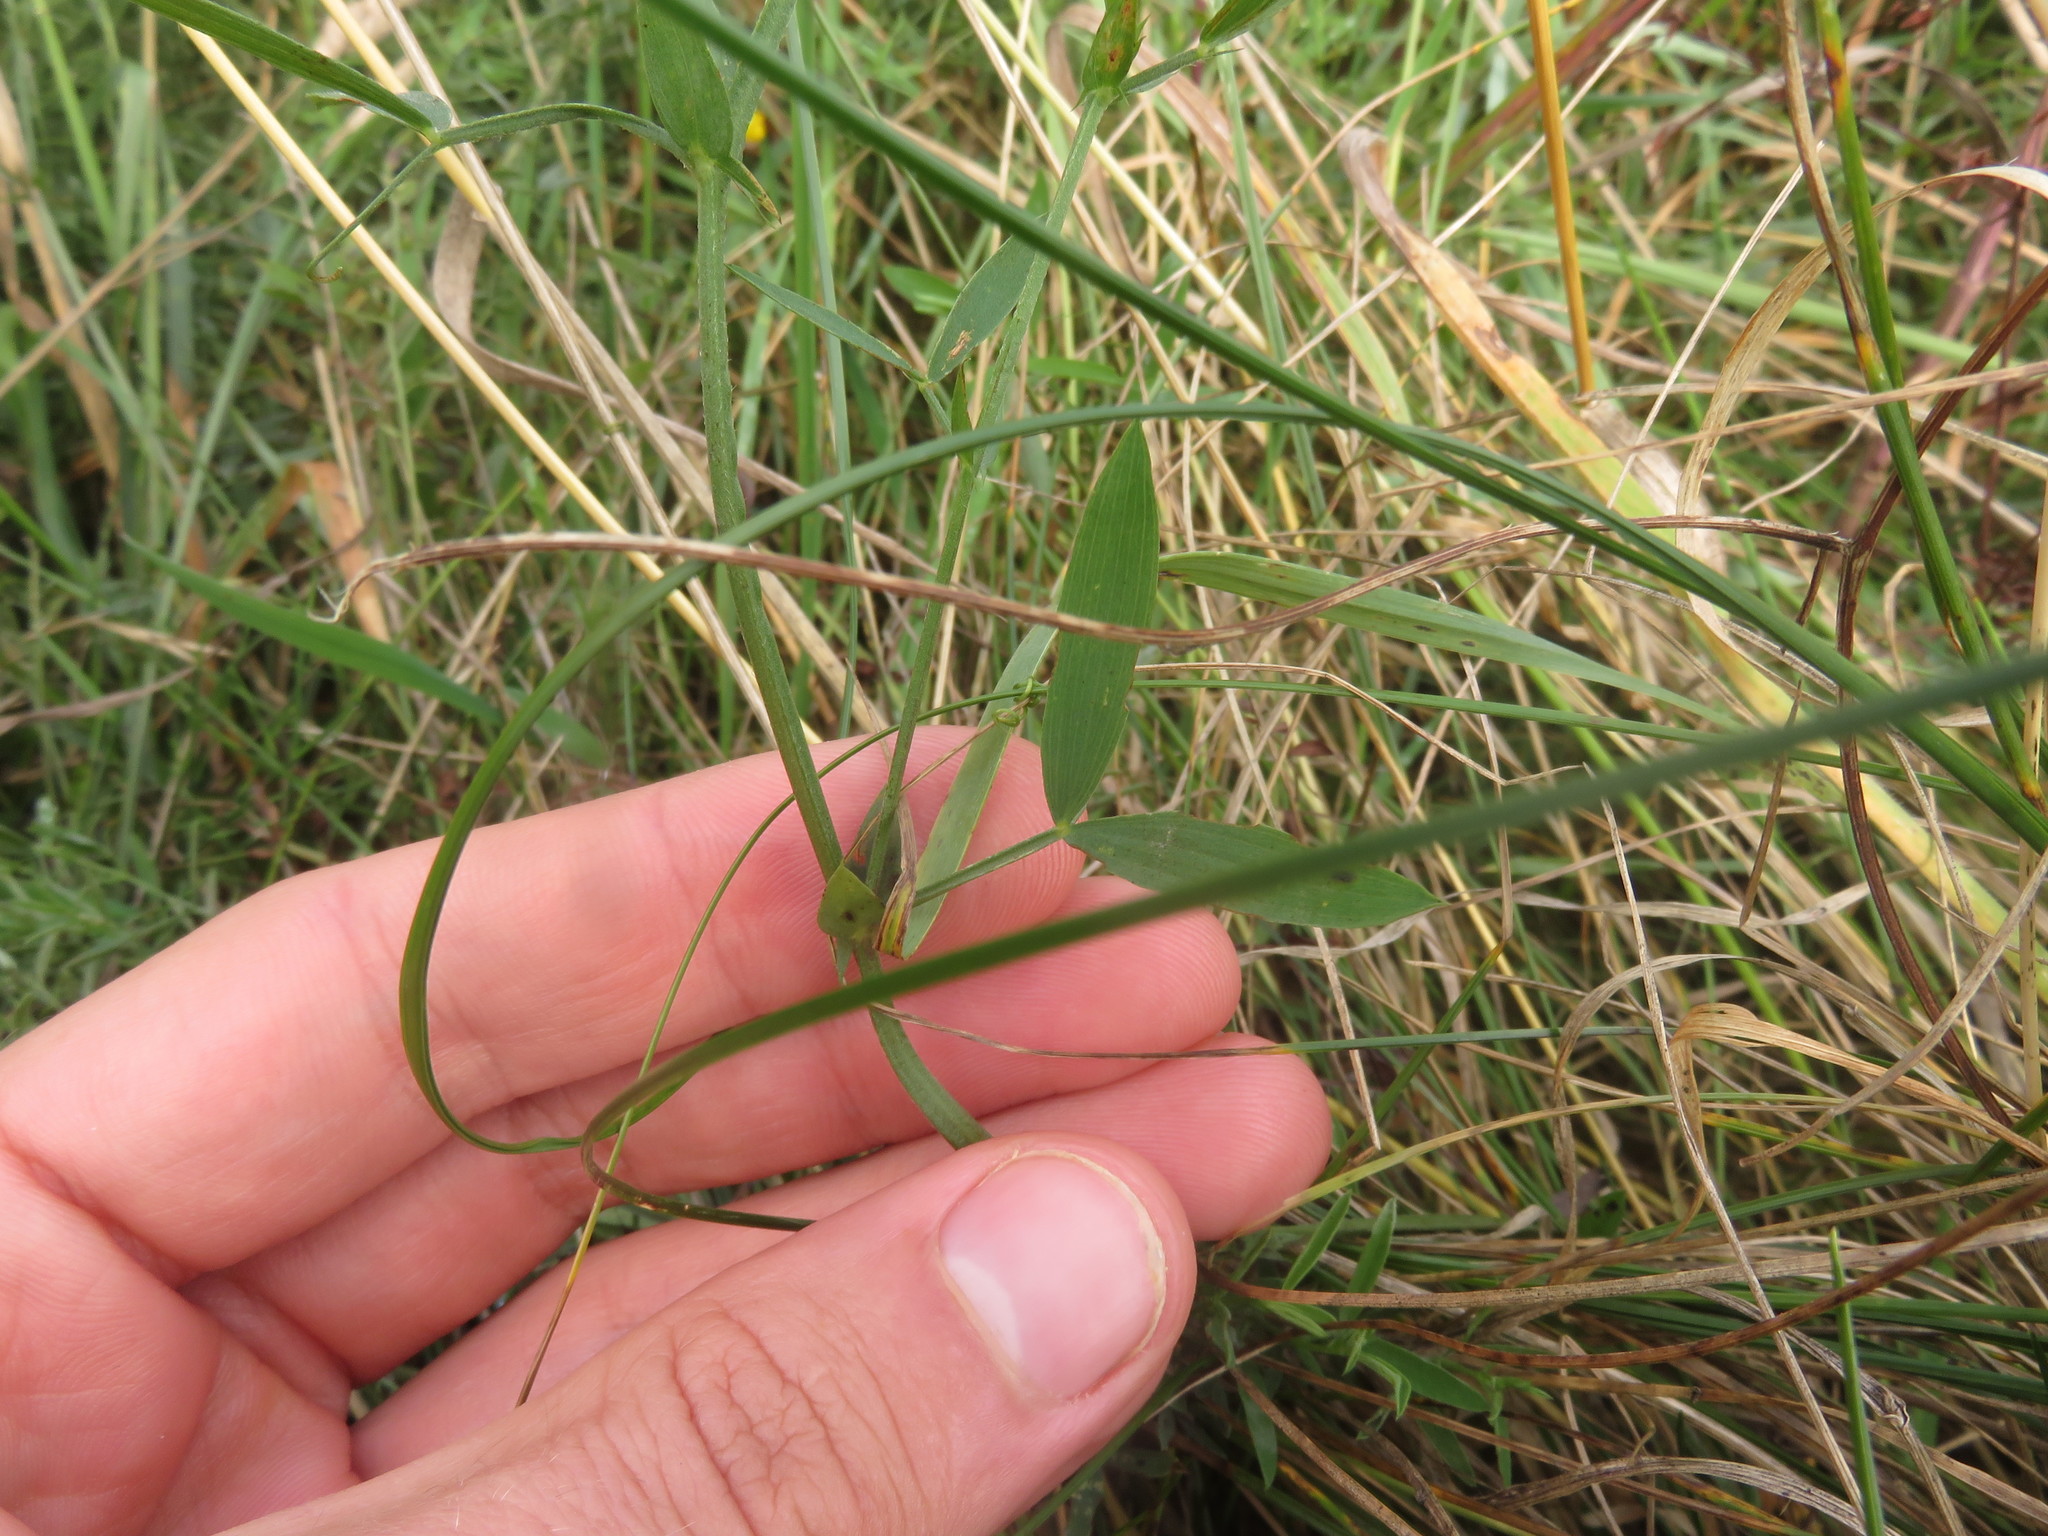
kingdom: Plantae
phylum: Tracheophyta
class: Magnoliopsida
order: Fabales
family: Fabaceae
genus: Lathyrus
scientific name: Lathyrus pratensis
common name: Meadow vetchling
